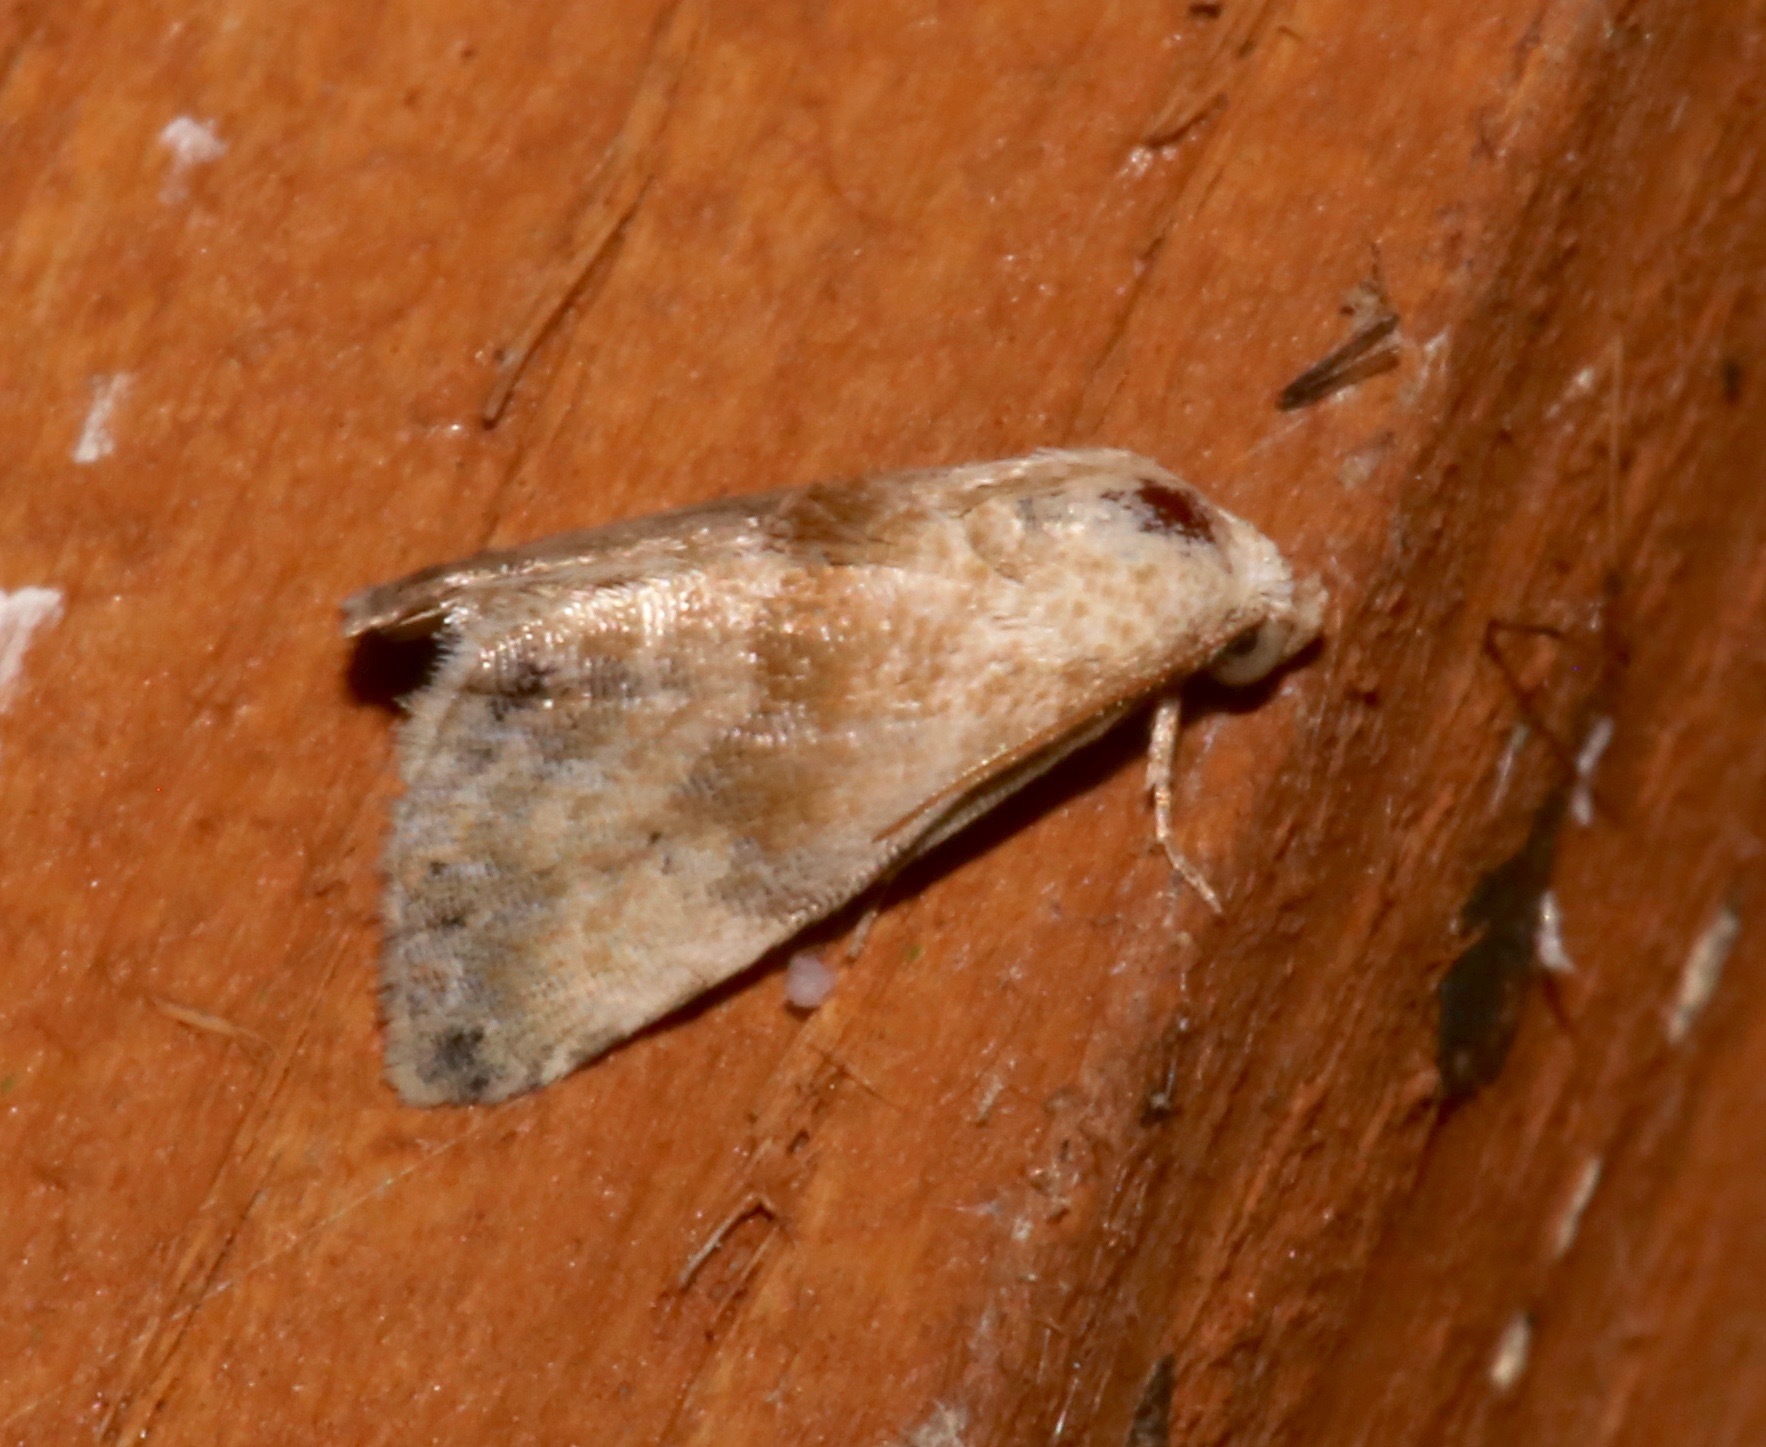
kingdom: Animalia
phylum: Arthropoda
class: Insecta
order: Lepidoptera
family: Noctuidae
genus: Eublemma
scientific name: Eublemma minima
